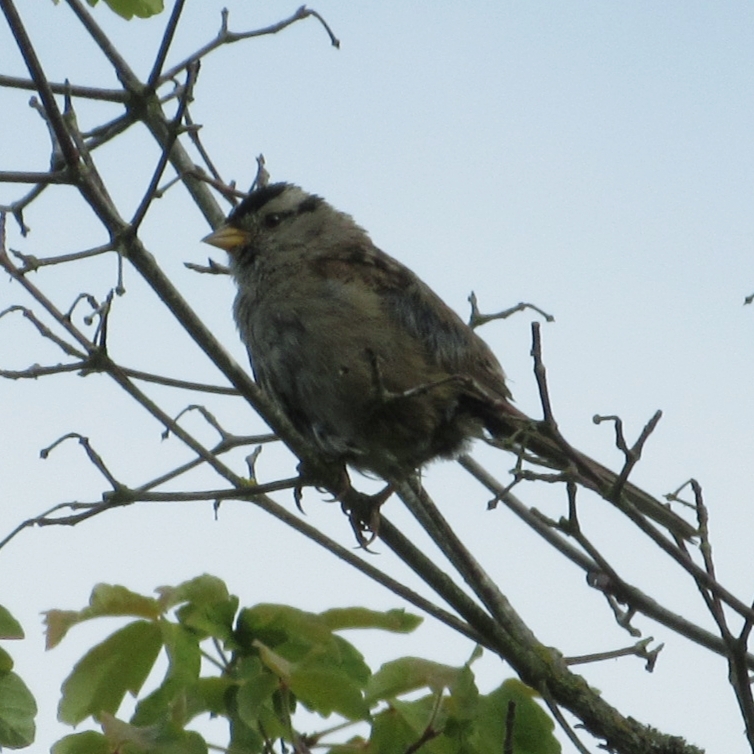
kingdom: Animalia
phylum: Chordata
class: Aves
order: Passeriformes
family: Passerellidae
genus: Zonotrichia
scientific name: Zonotrichia leucophrys
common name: White-crowned sparrow
